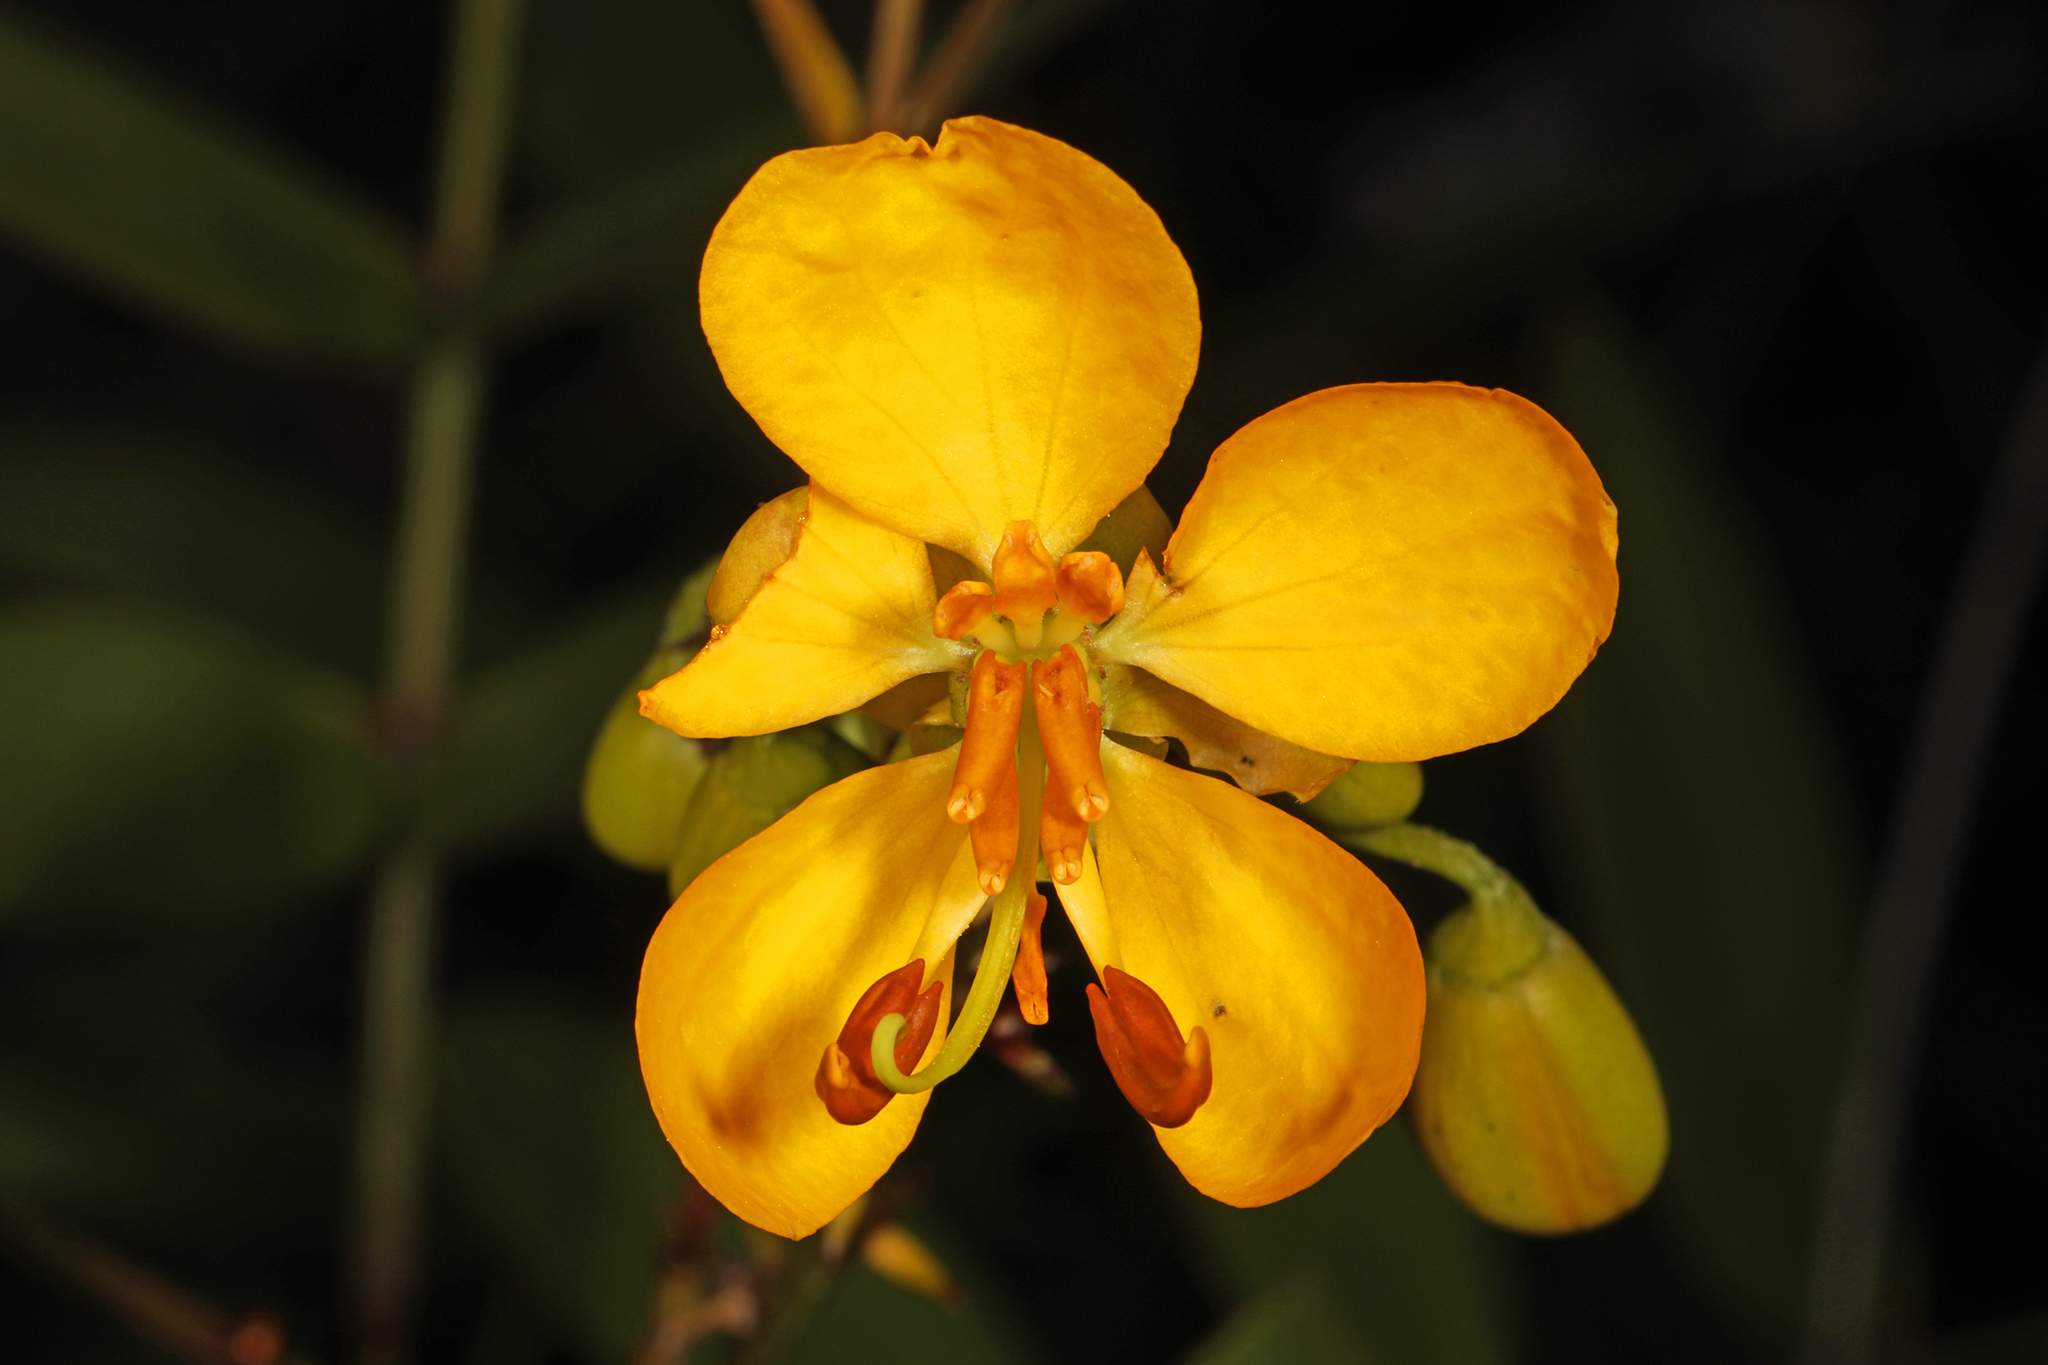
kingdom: Plantae
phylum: Tracheophyta
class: Magnoliopsida
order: Fabales
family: Fabaceae
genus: Senna
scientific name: Senna chapmanii
